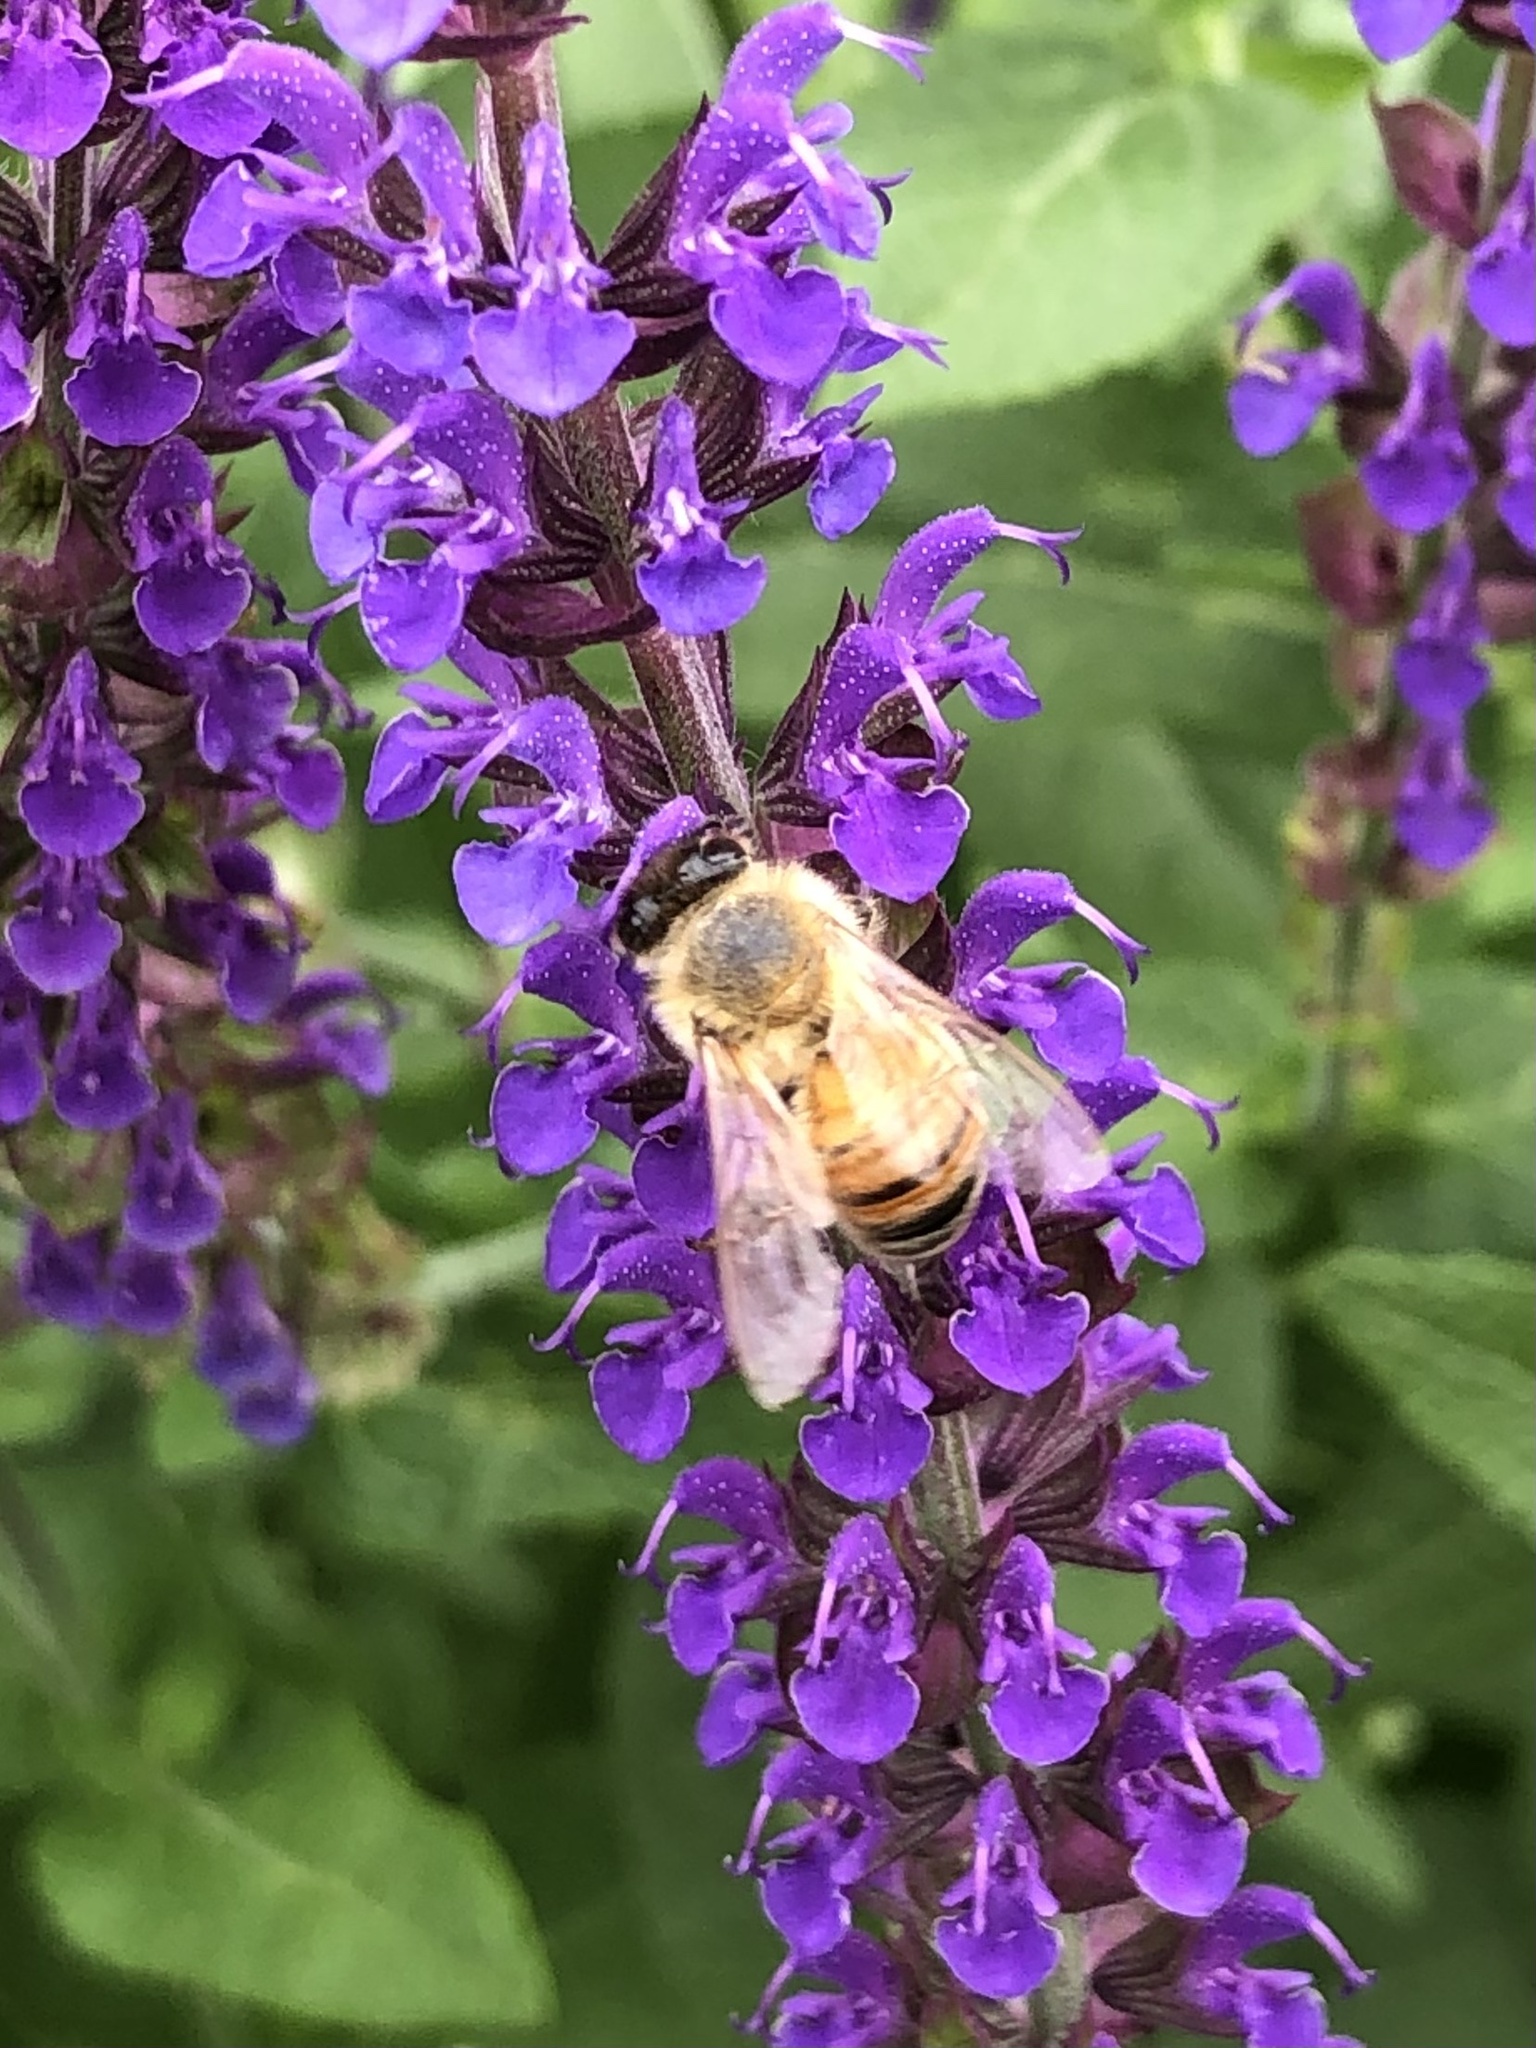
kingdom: Animalia
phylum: Arthropoda
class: Insecta
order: Hymenoptera
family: Apidae
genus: Apis
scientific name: Apis mellifera
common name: Honey bee
